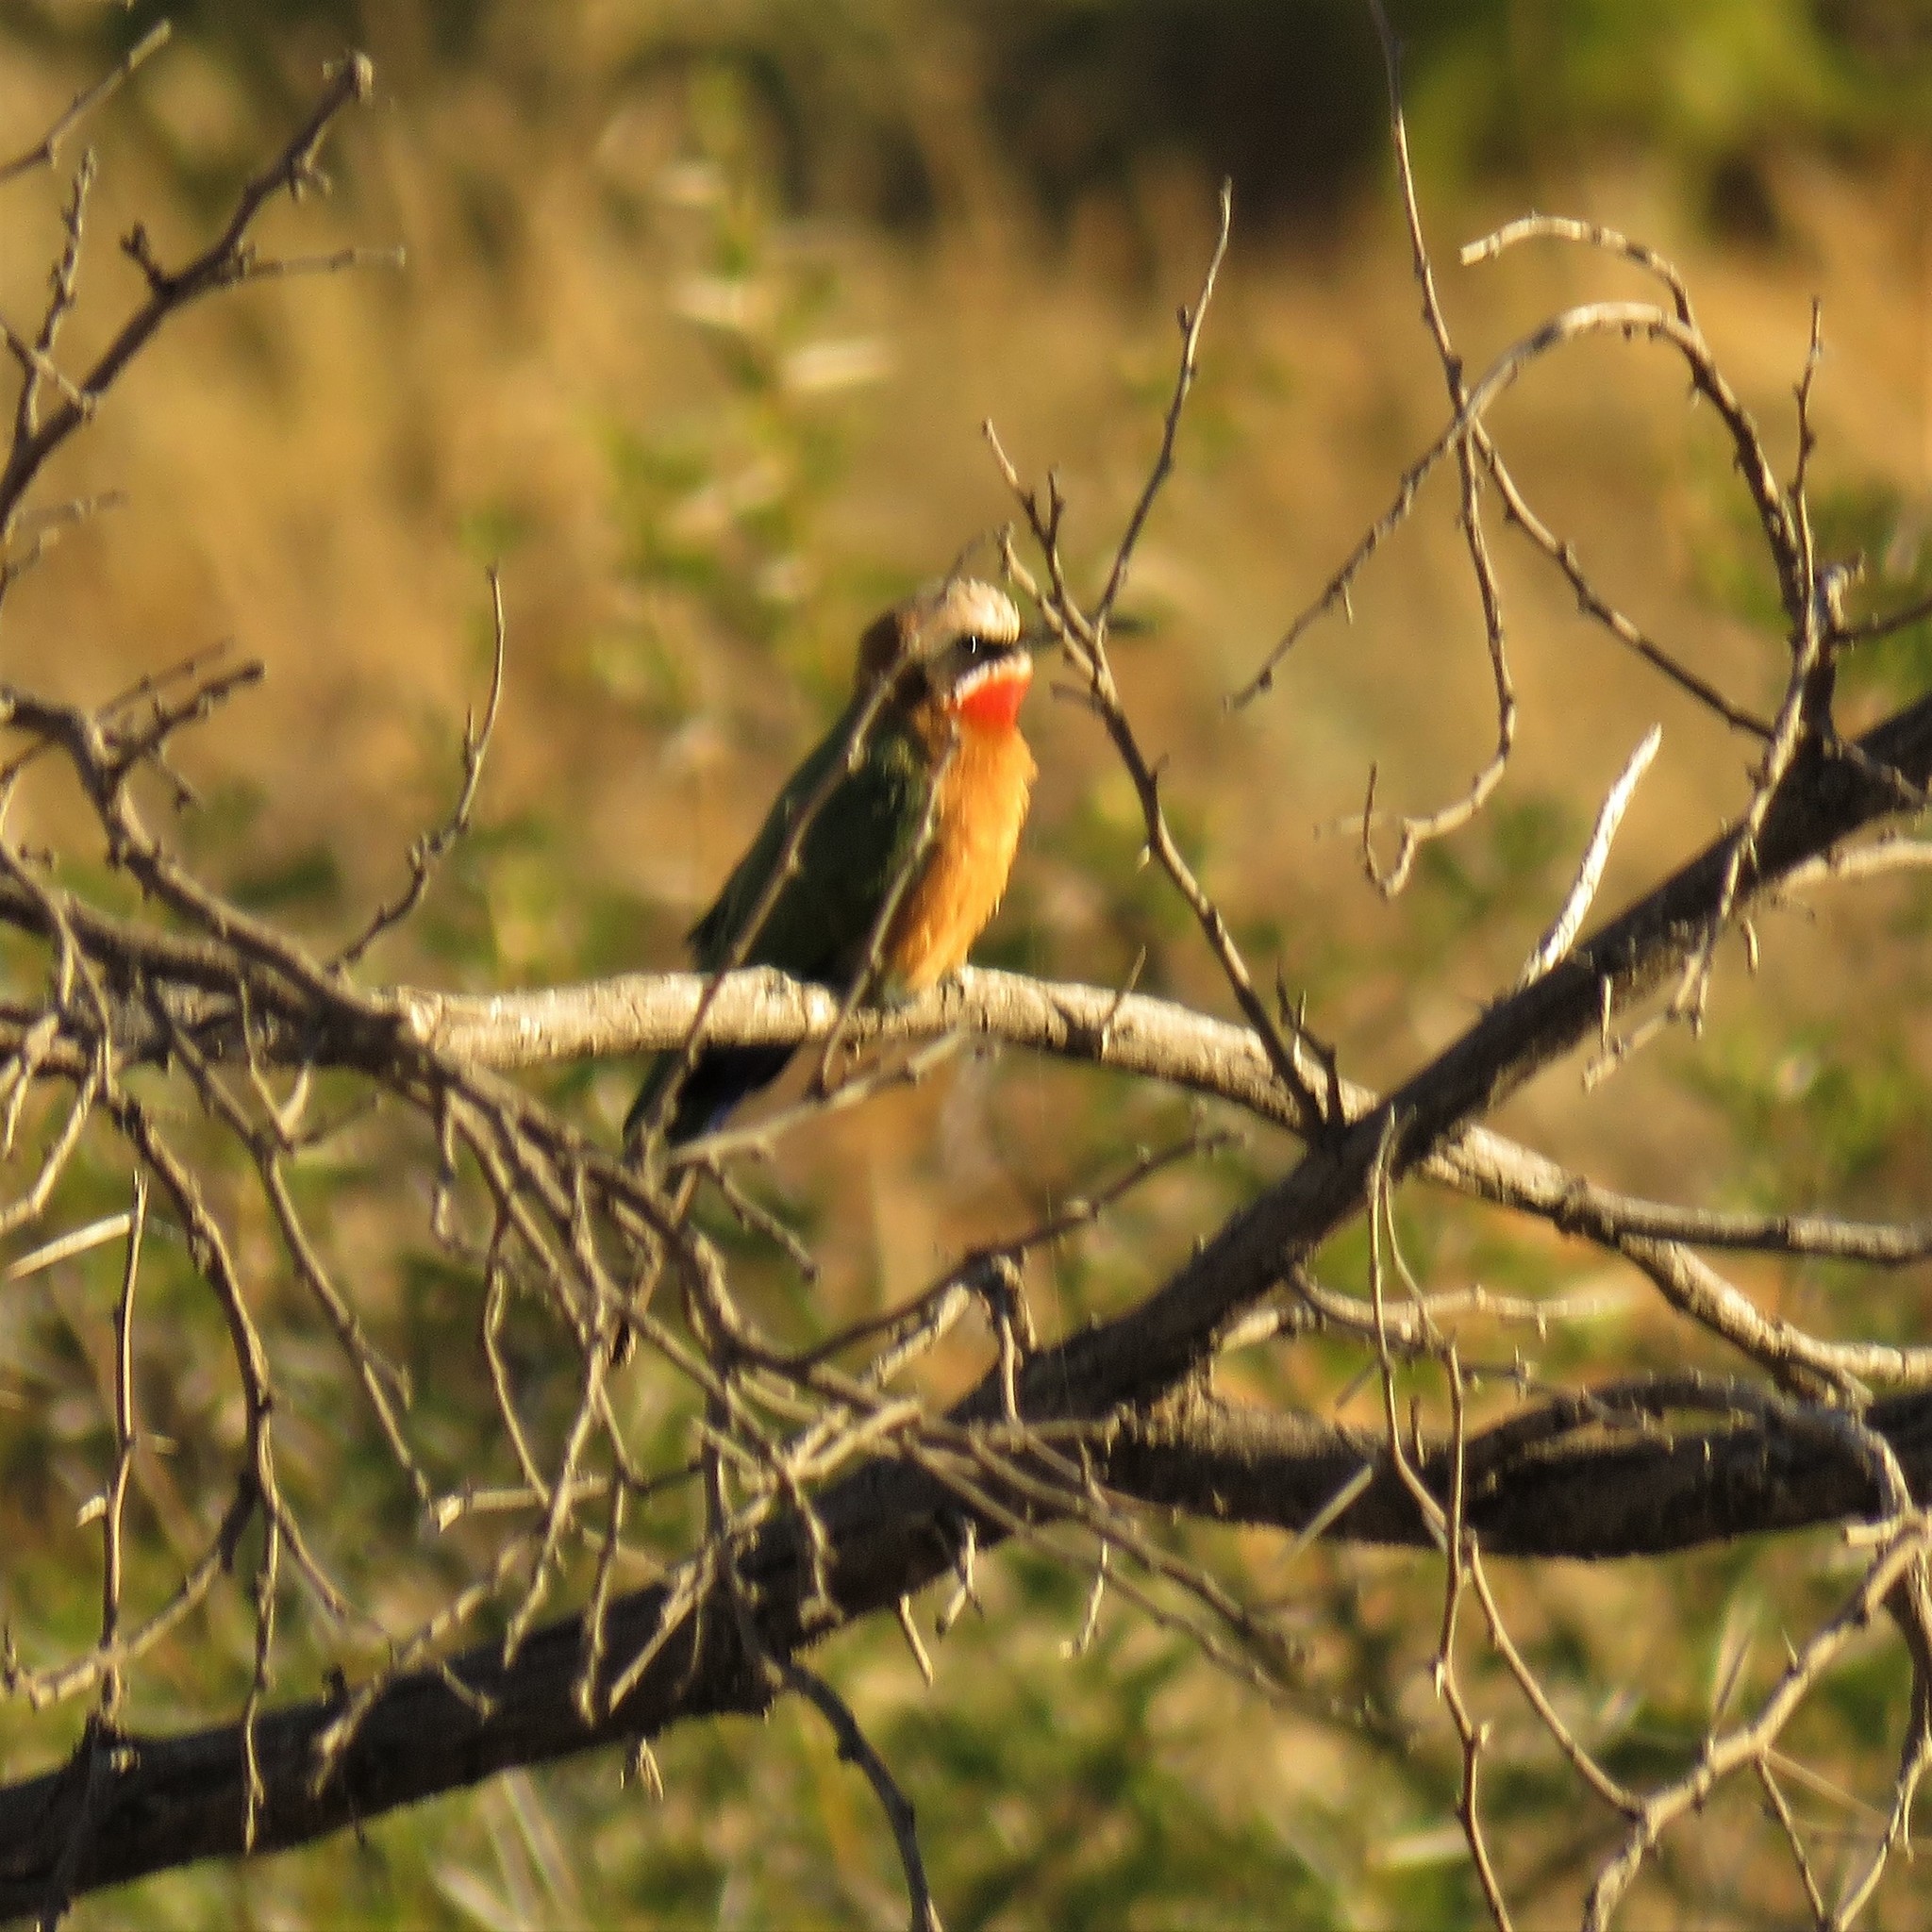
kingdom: Animalia
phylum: Chordata
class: Aves
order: Coraciiformes
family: Meropidae
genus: Merops
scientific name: Merops bullockoides
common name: White-fronted bee-eater
